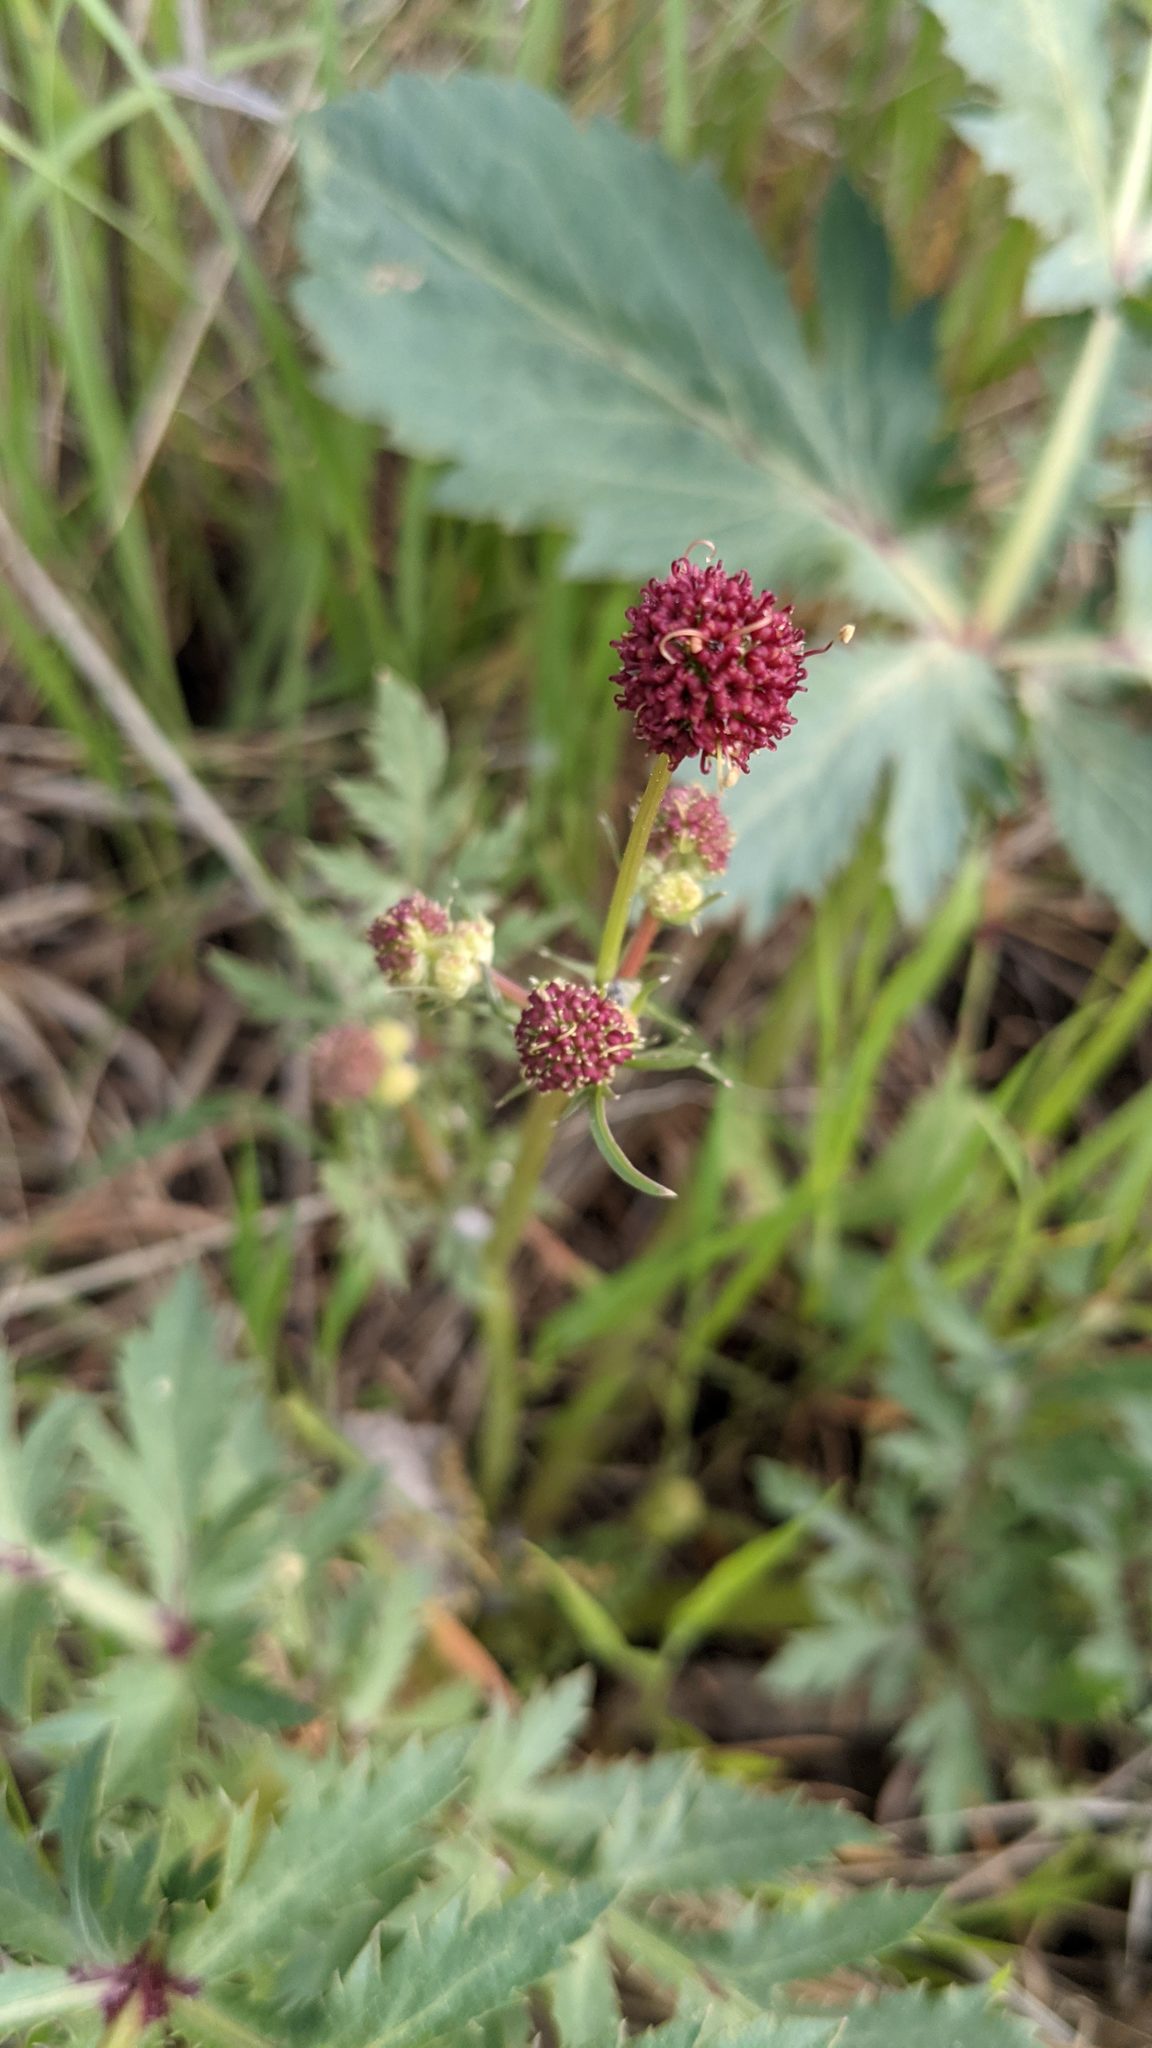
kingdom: Plantae
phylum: Tracheophyta
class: Magnoliopsida
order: Apiales
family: Apiaceae
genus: Sanicula
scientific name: Sanicula bipinnatifida
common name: Shoe-buttons
